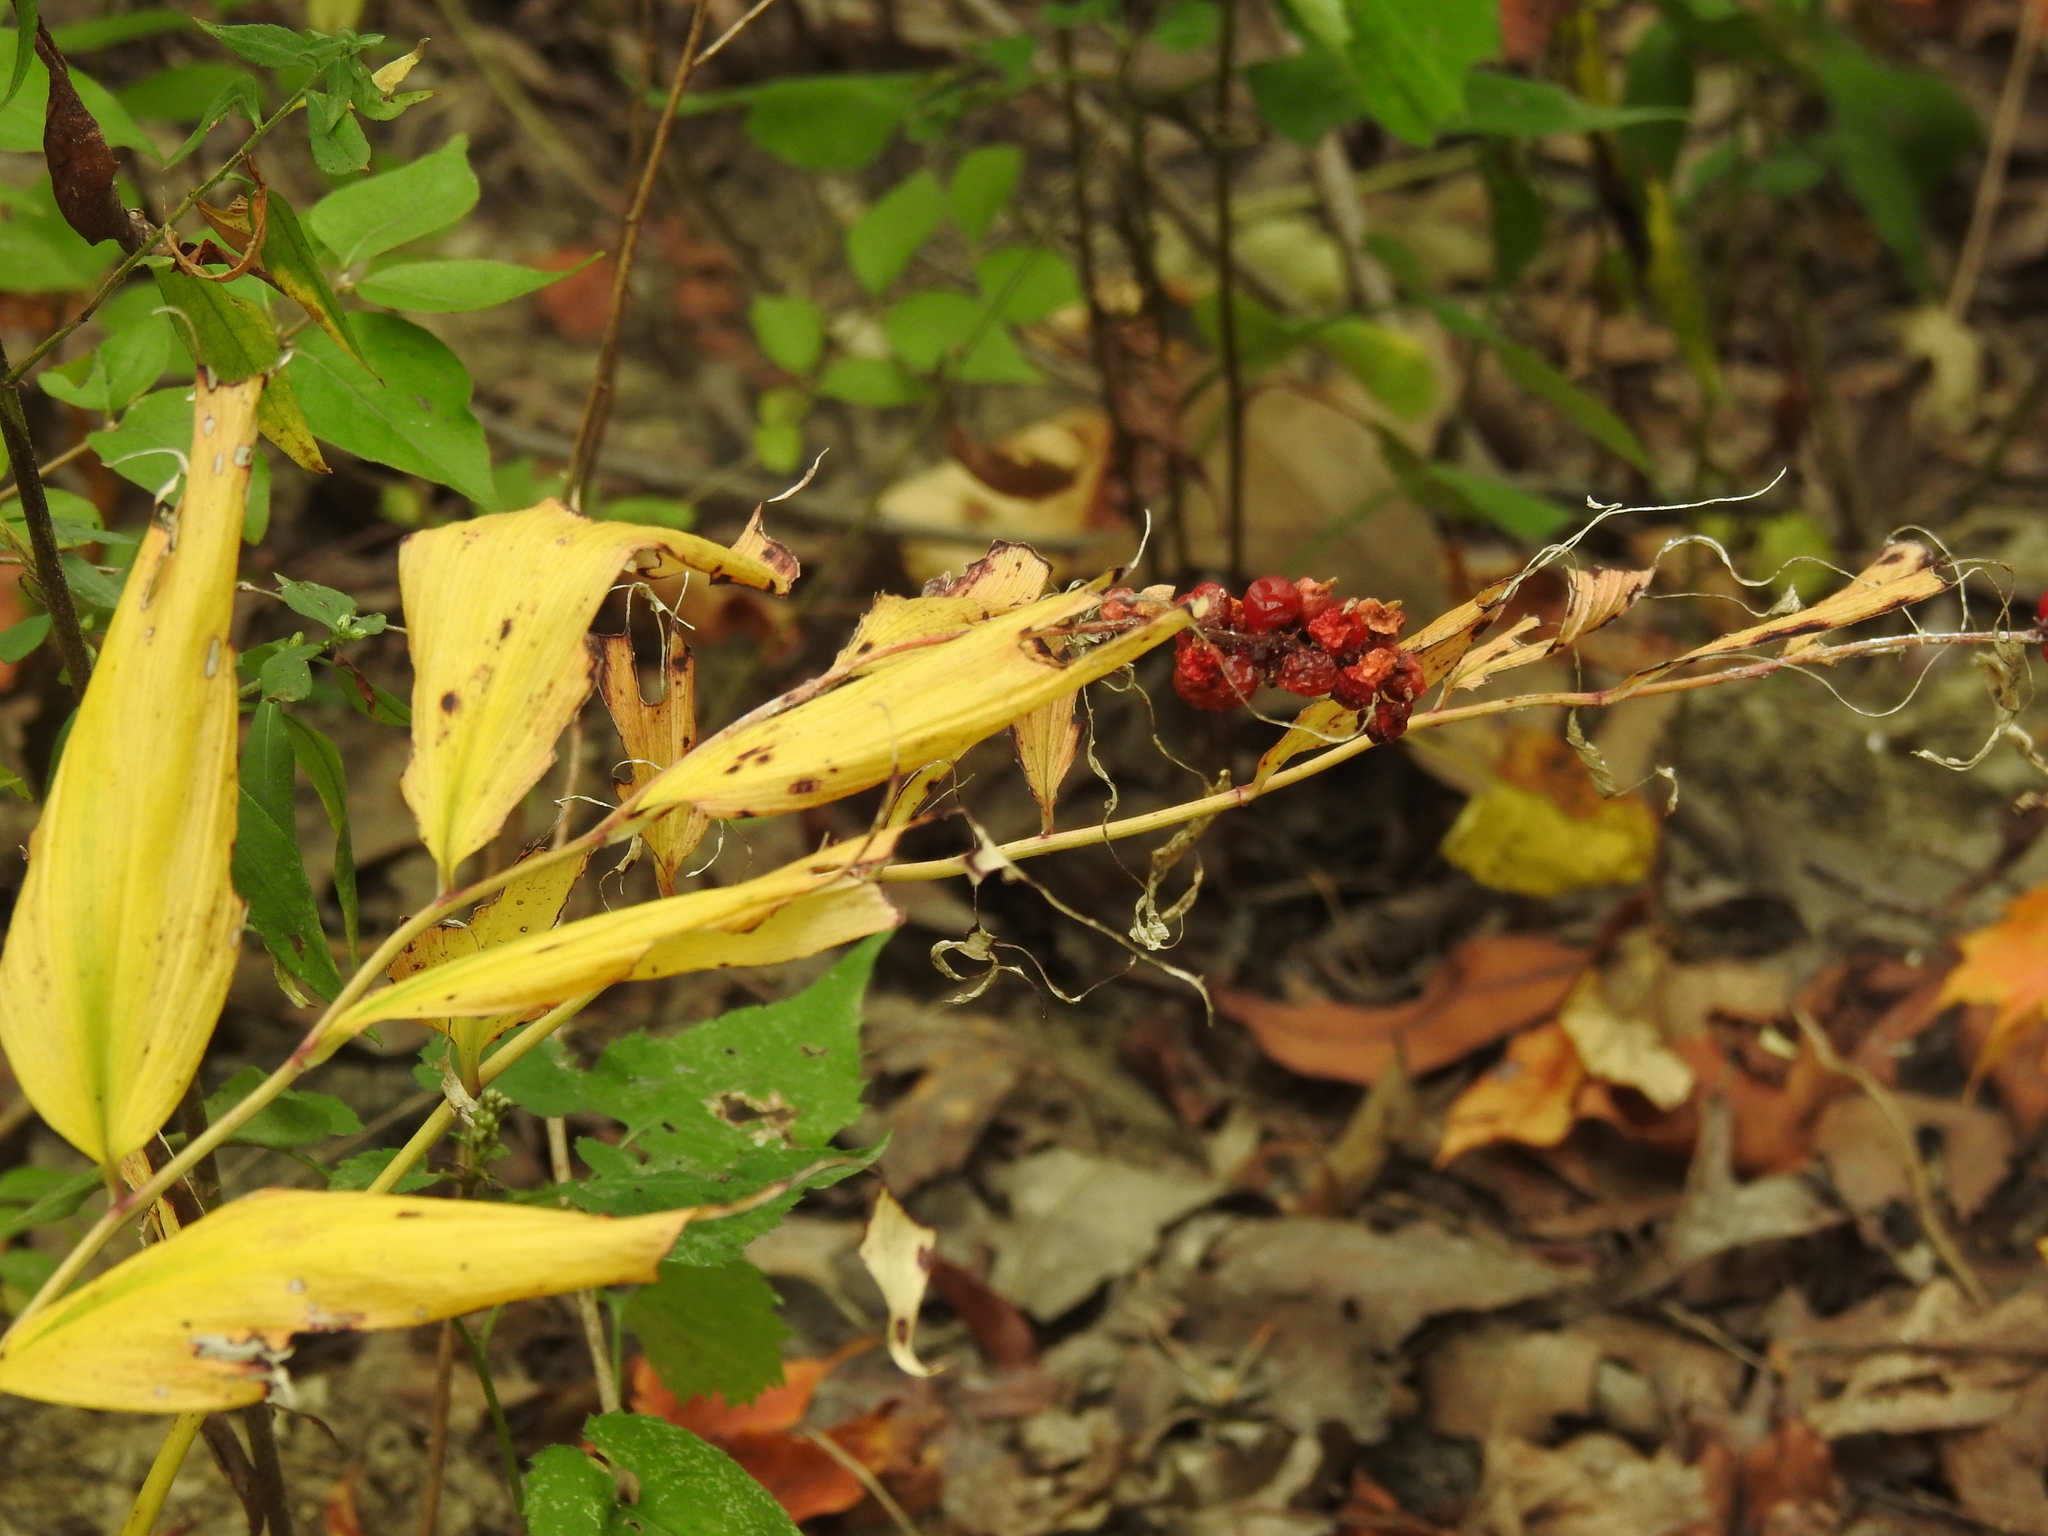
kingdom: Plantae
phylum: Tracheophyta
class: Liliopsida
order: Asparagales
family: Asparagaceae
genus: Maianthemum
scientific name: Maianthemum racemosum
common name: False spikenard
